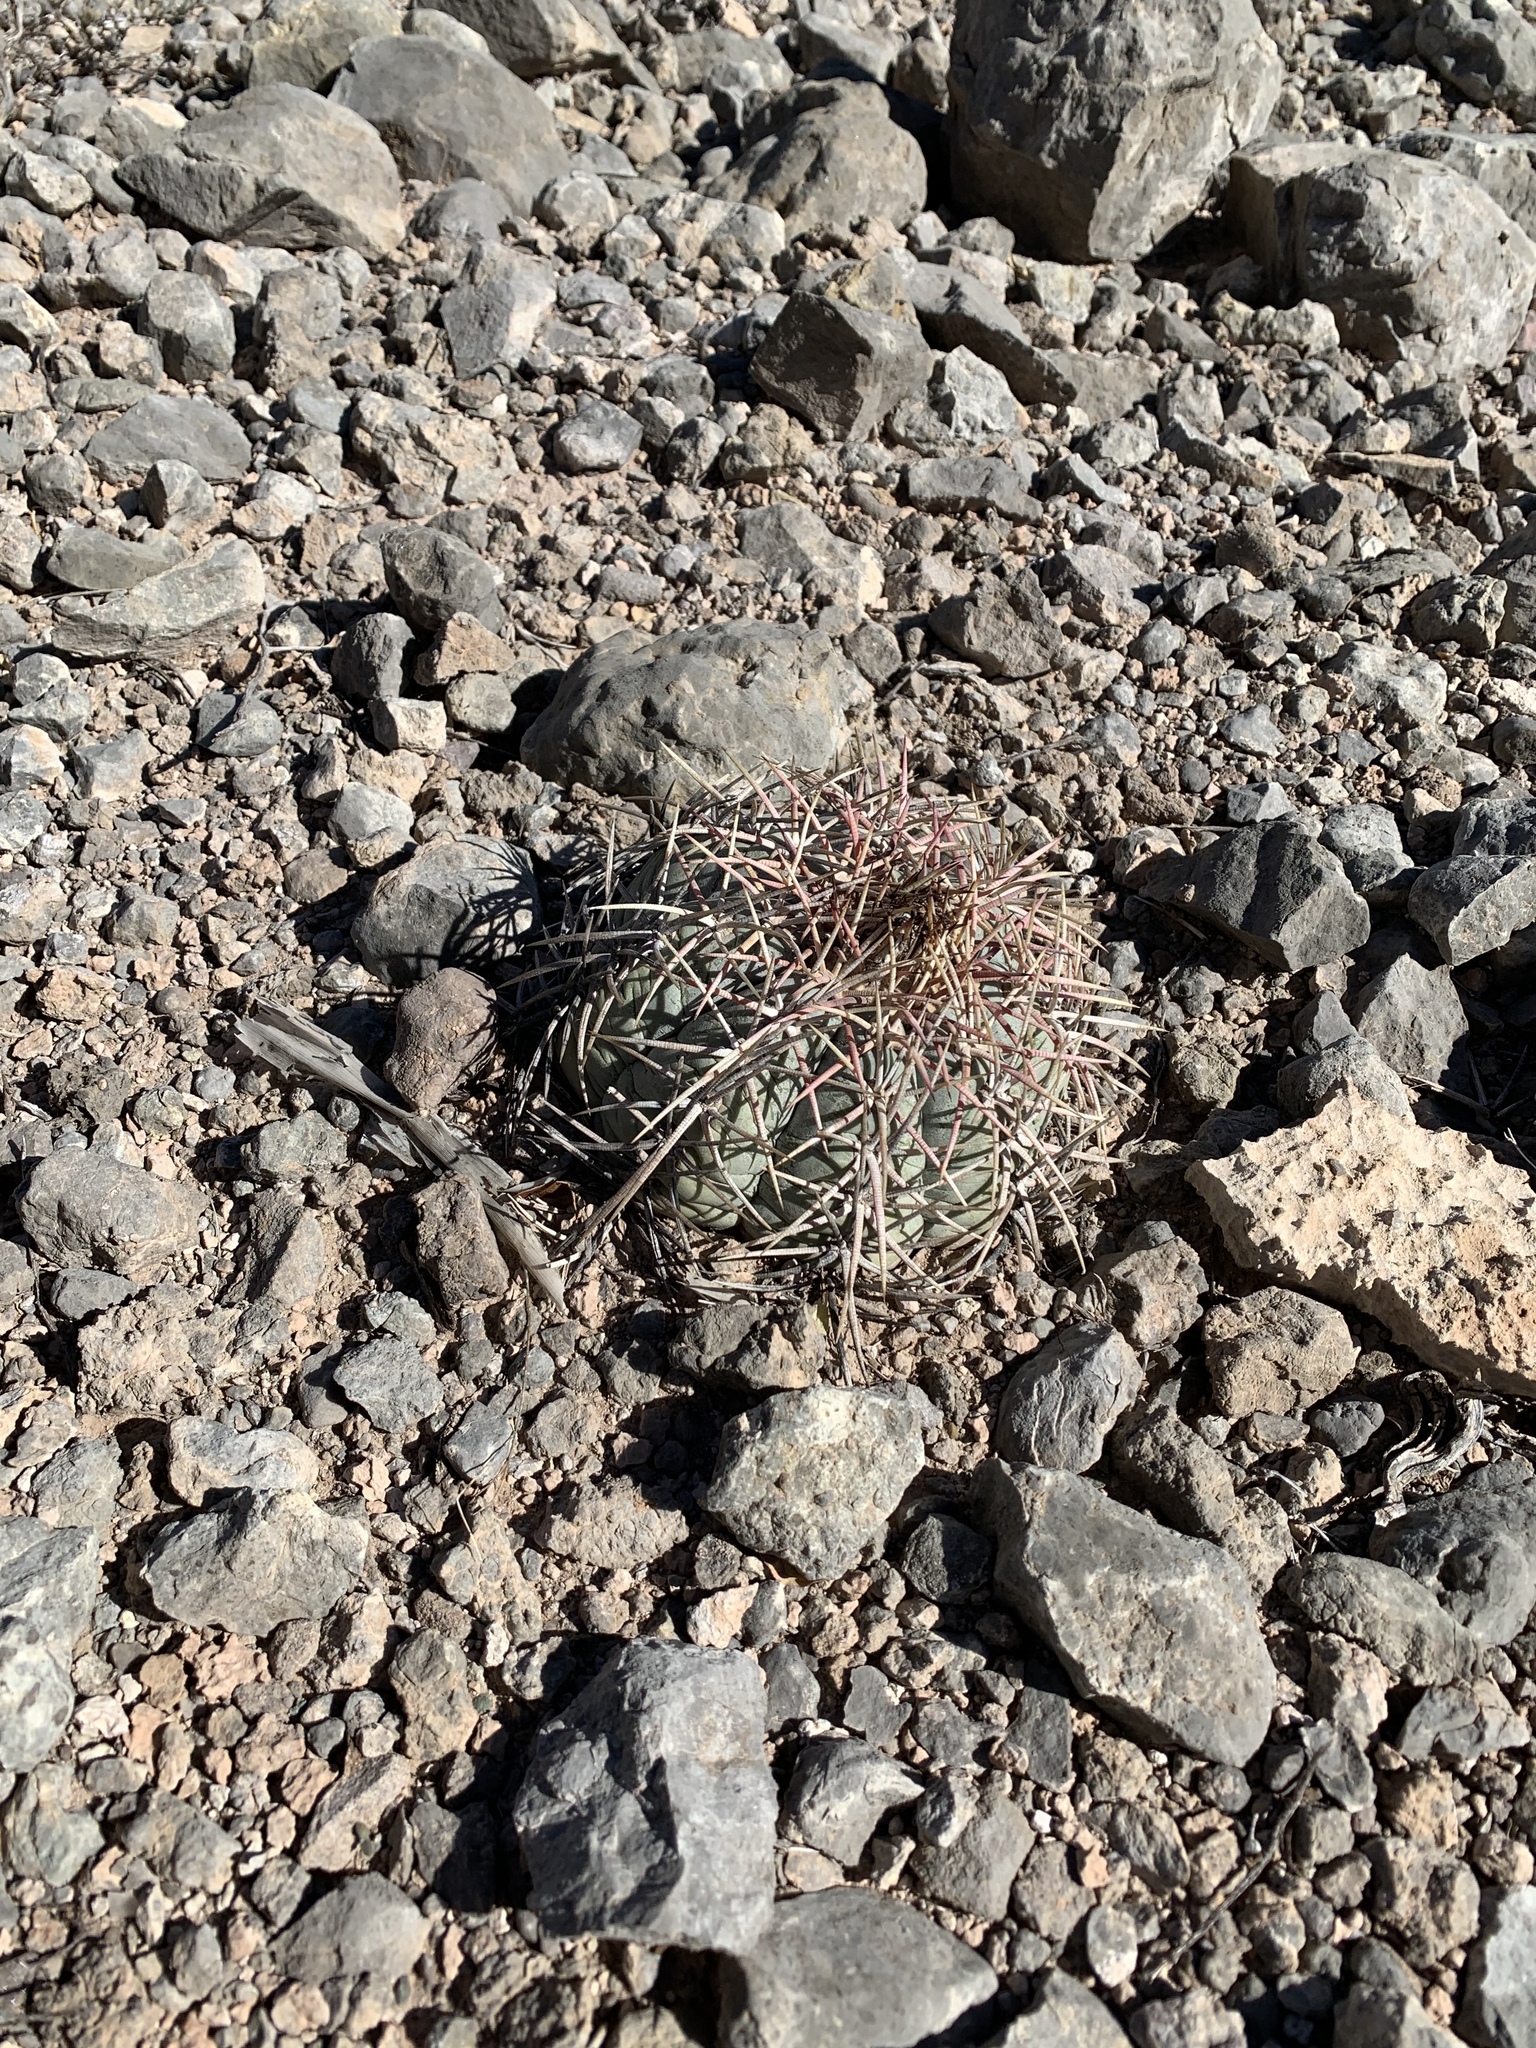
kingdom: Plantae
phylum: Tracheophyta
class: Magnoliopsida
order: Caryophyllales
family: Cactaceae
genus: Echinocactus
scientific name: Echinocactus horizonthalonius
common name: Devilshead
